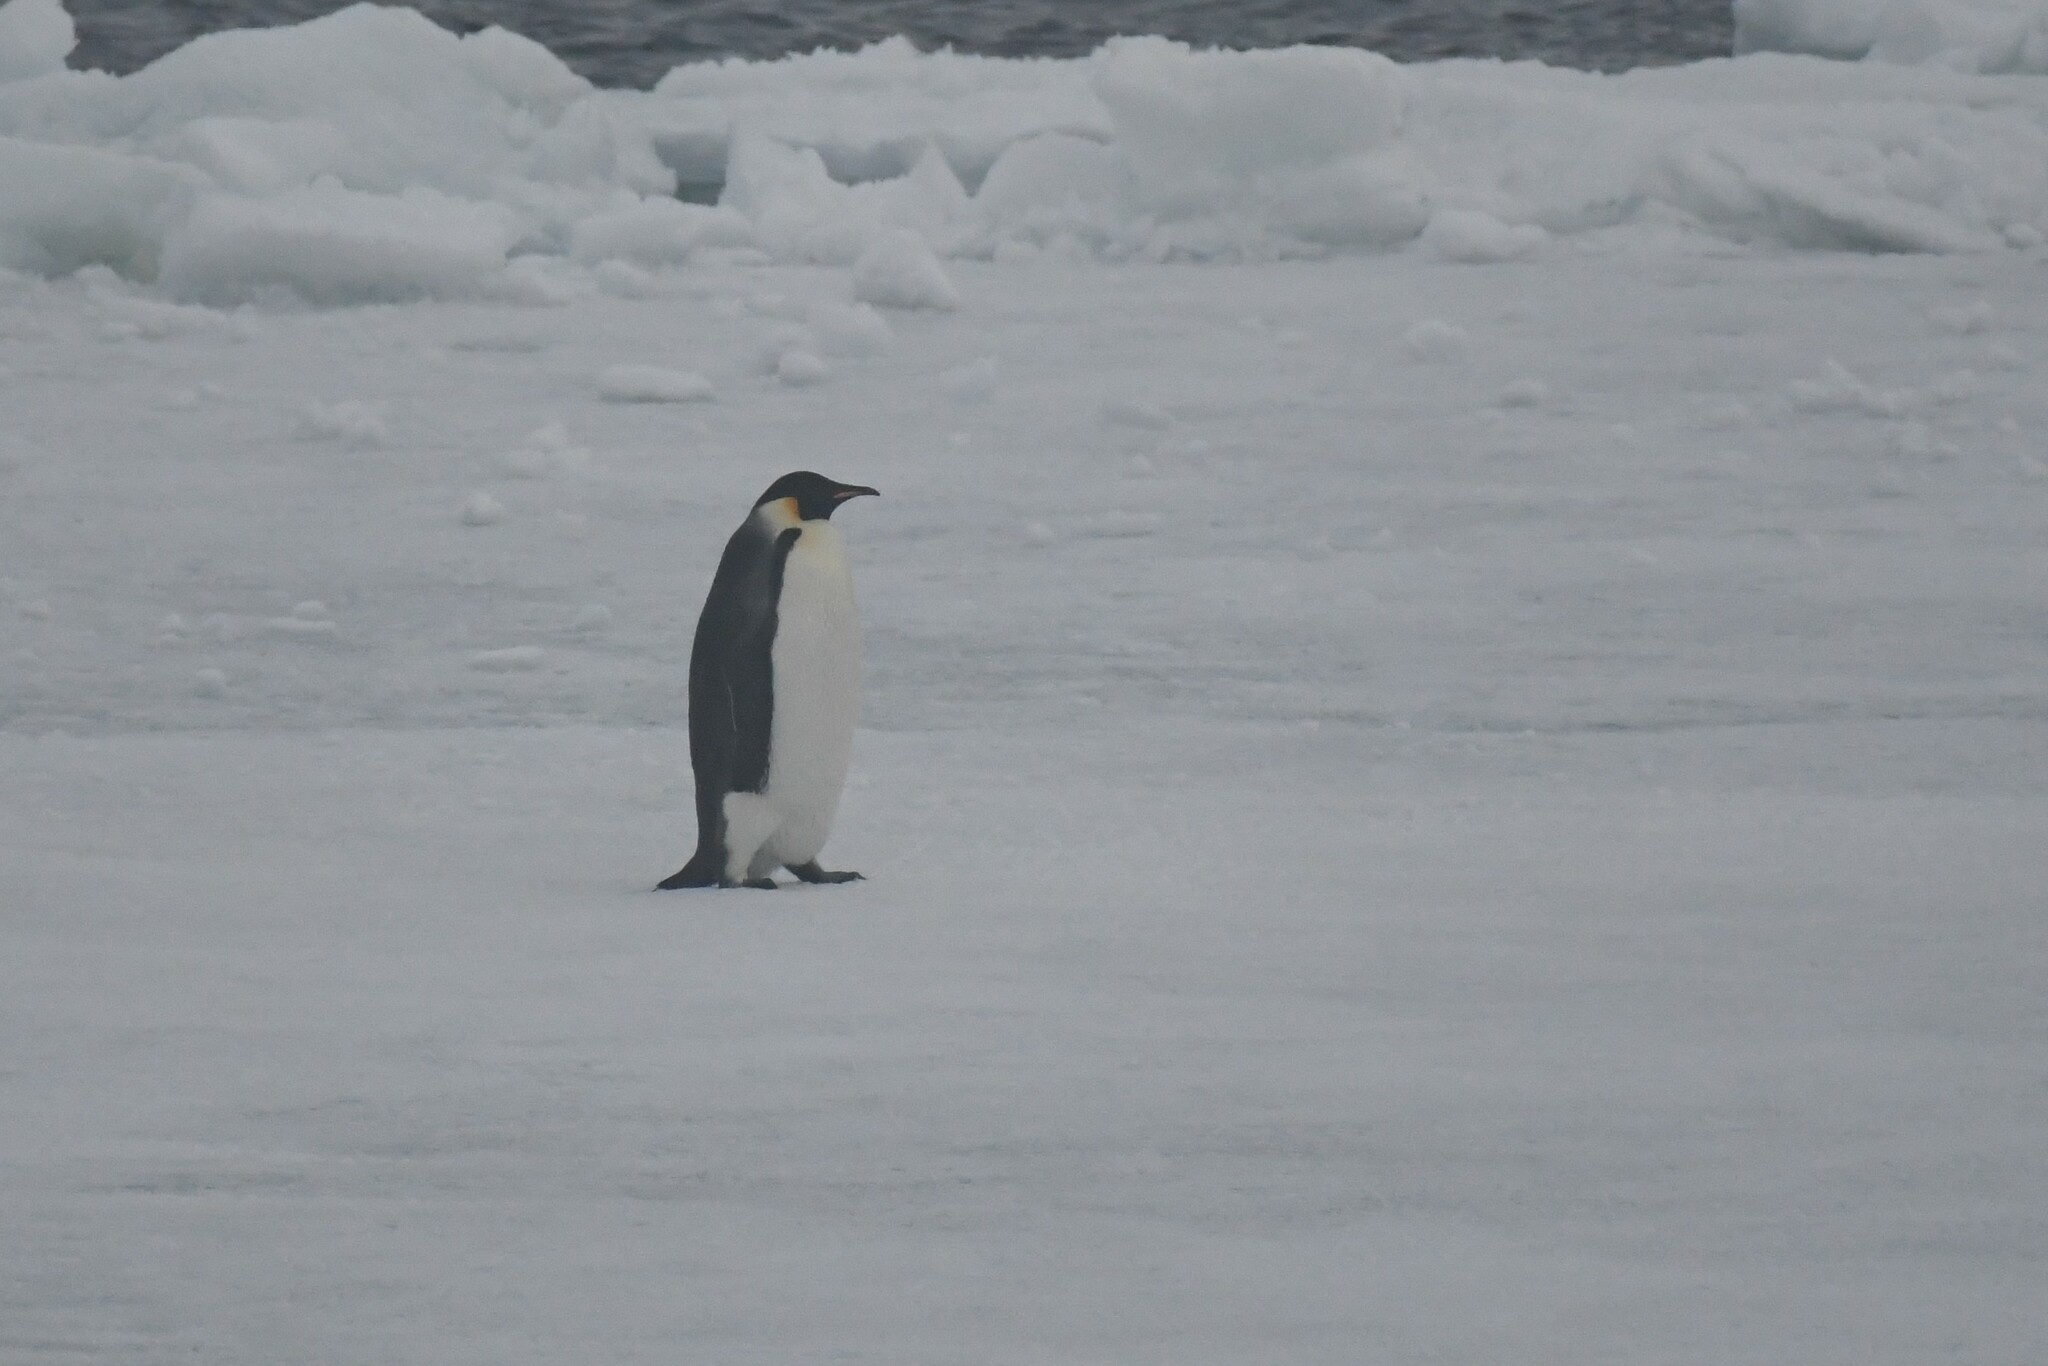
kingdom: Animalia
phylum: Chordata
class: Aves
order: Sphenisciformes
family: Spheniscidae
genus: Aptenodytes
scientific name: Aptenodytes forsteri
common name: Emperor penguin
